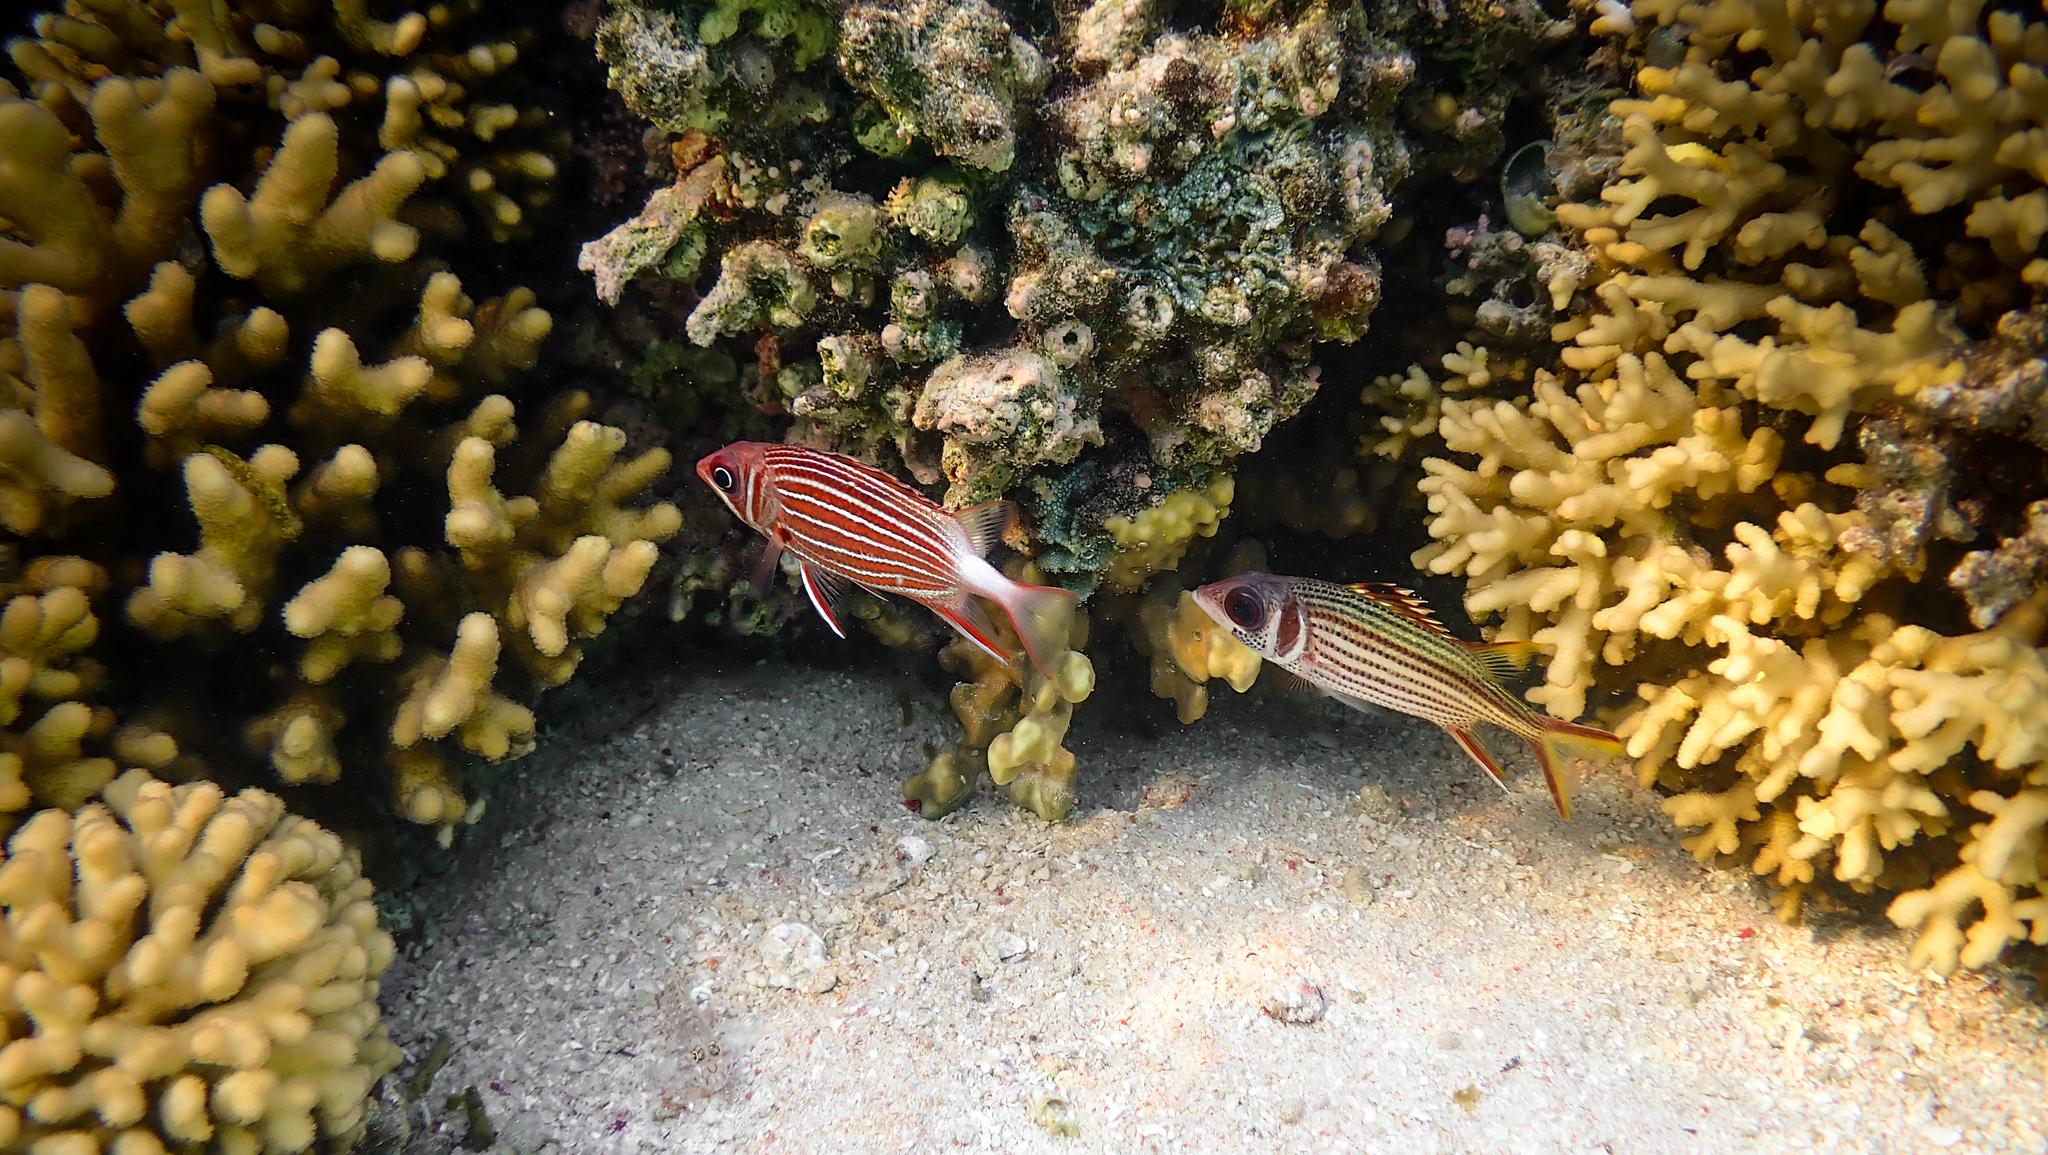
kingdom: Animalia
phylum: Chordata
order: Beryciformes
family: Holocentridae
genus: Neoniphon
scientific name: Neoniphon sammara
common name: Sammara squirrelfish
